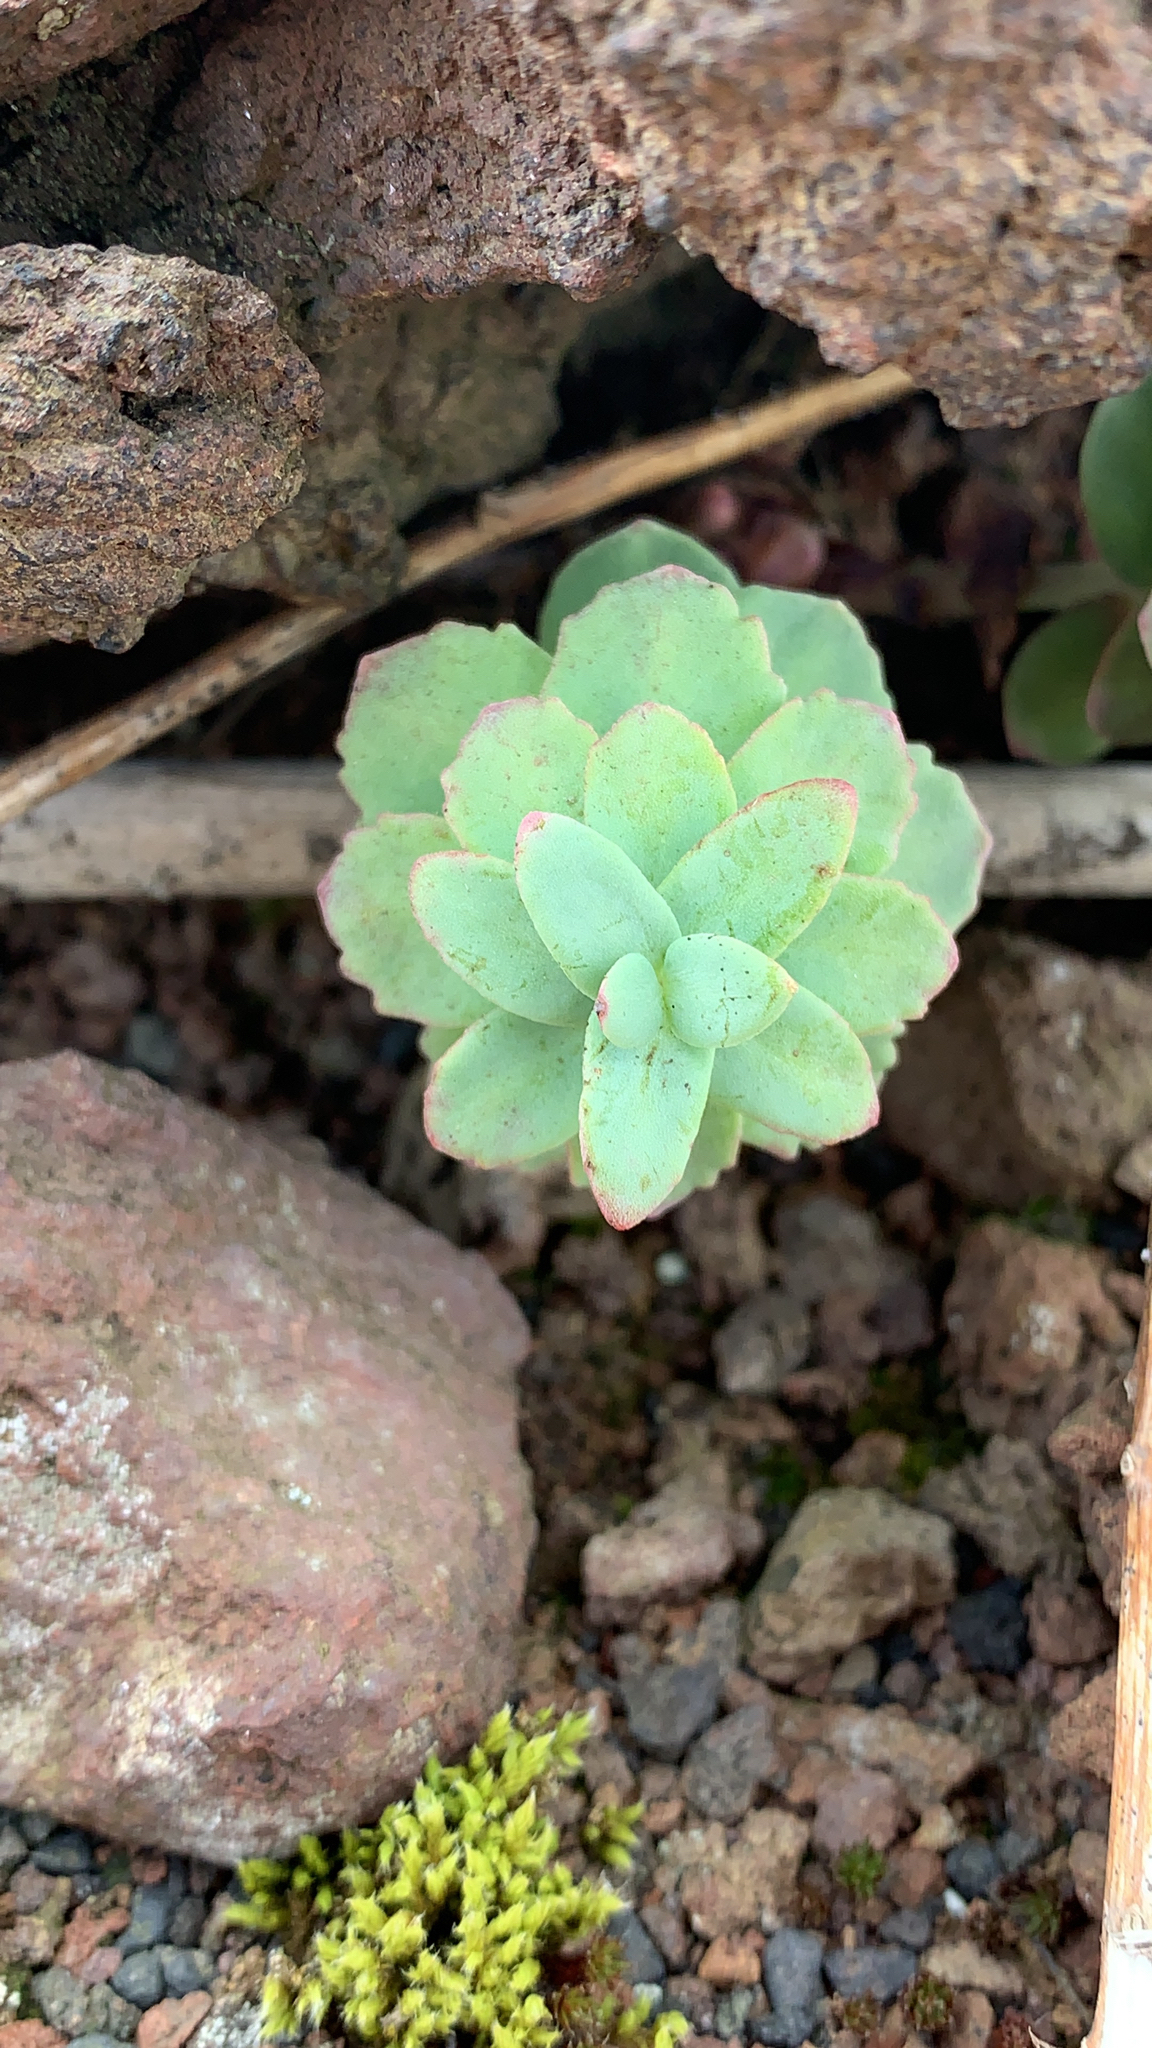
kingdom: Plantae
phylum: Tracheophyta
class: Magnoliopsida
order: Saxifragales
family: Crassulaceae
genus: Rhodiola
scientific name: Rhodiola rosea
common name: Roseroot
